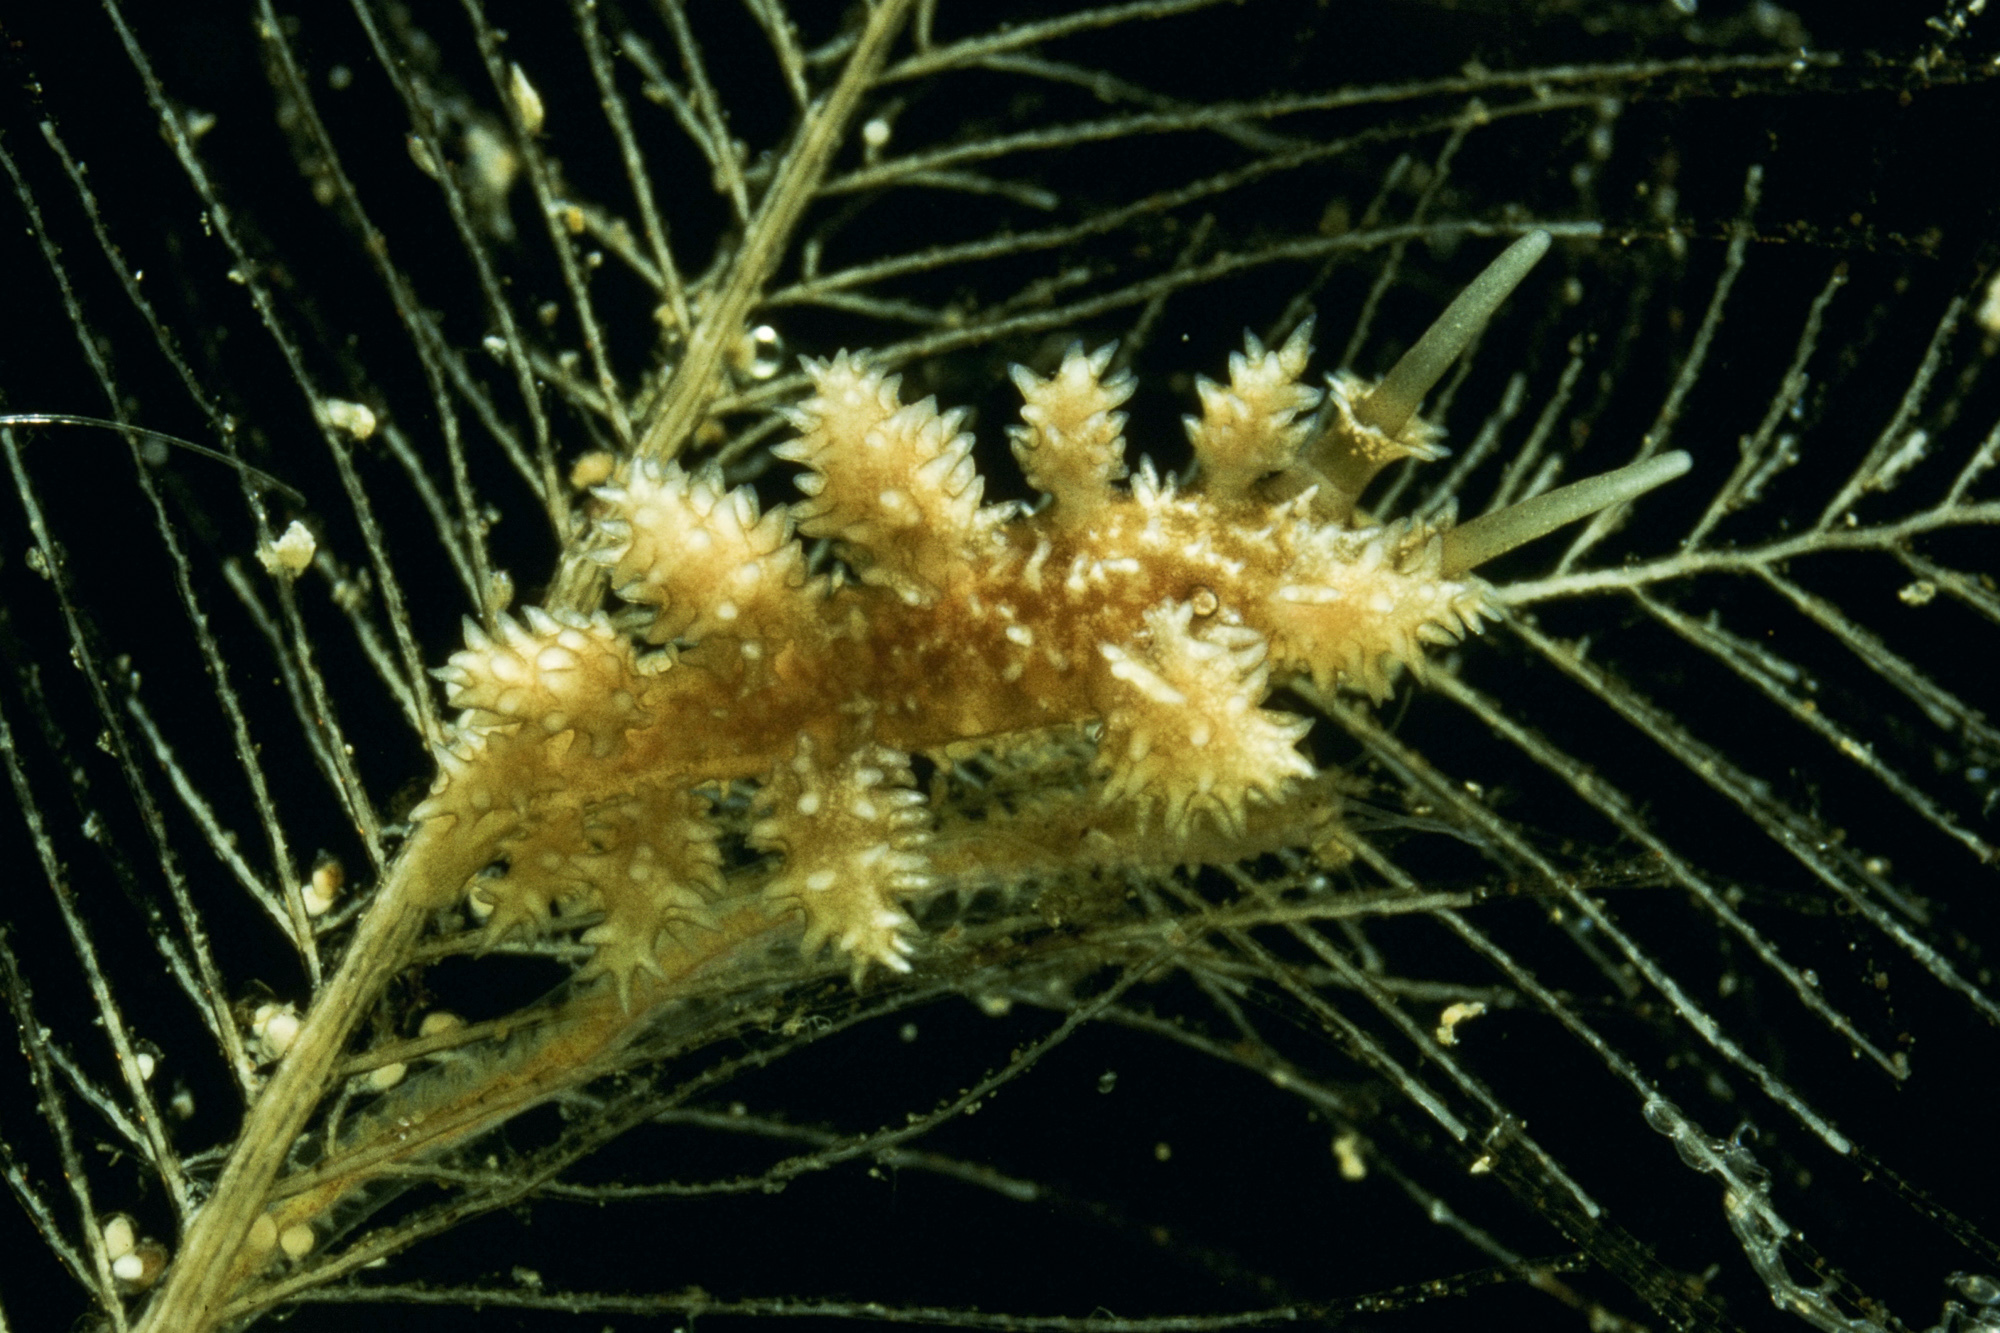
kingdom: Animalia
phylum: Mollusca
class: Gastropoda
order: Nudibranchia
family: Dotidae
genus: Doto
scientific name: Doto hystrix
